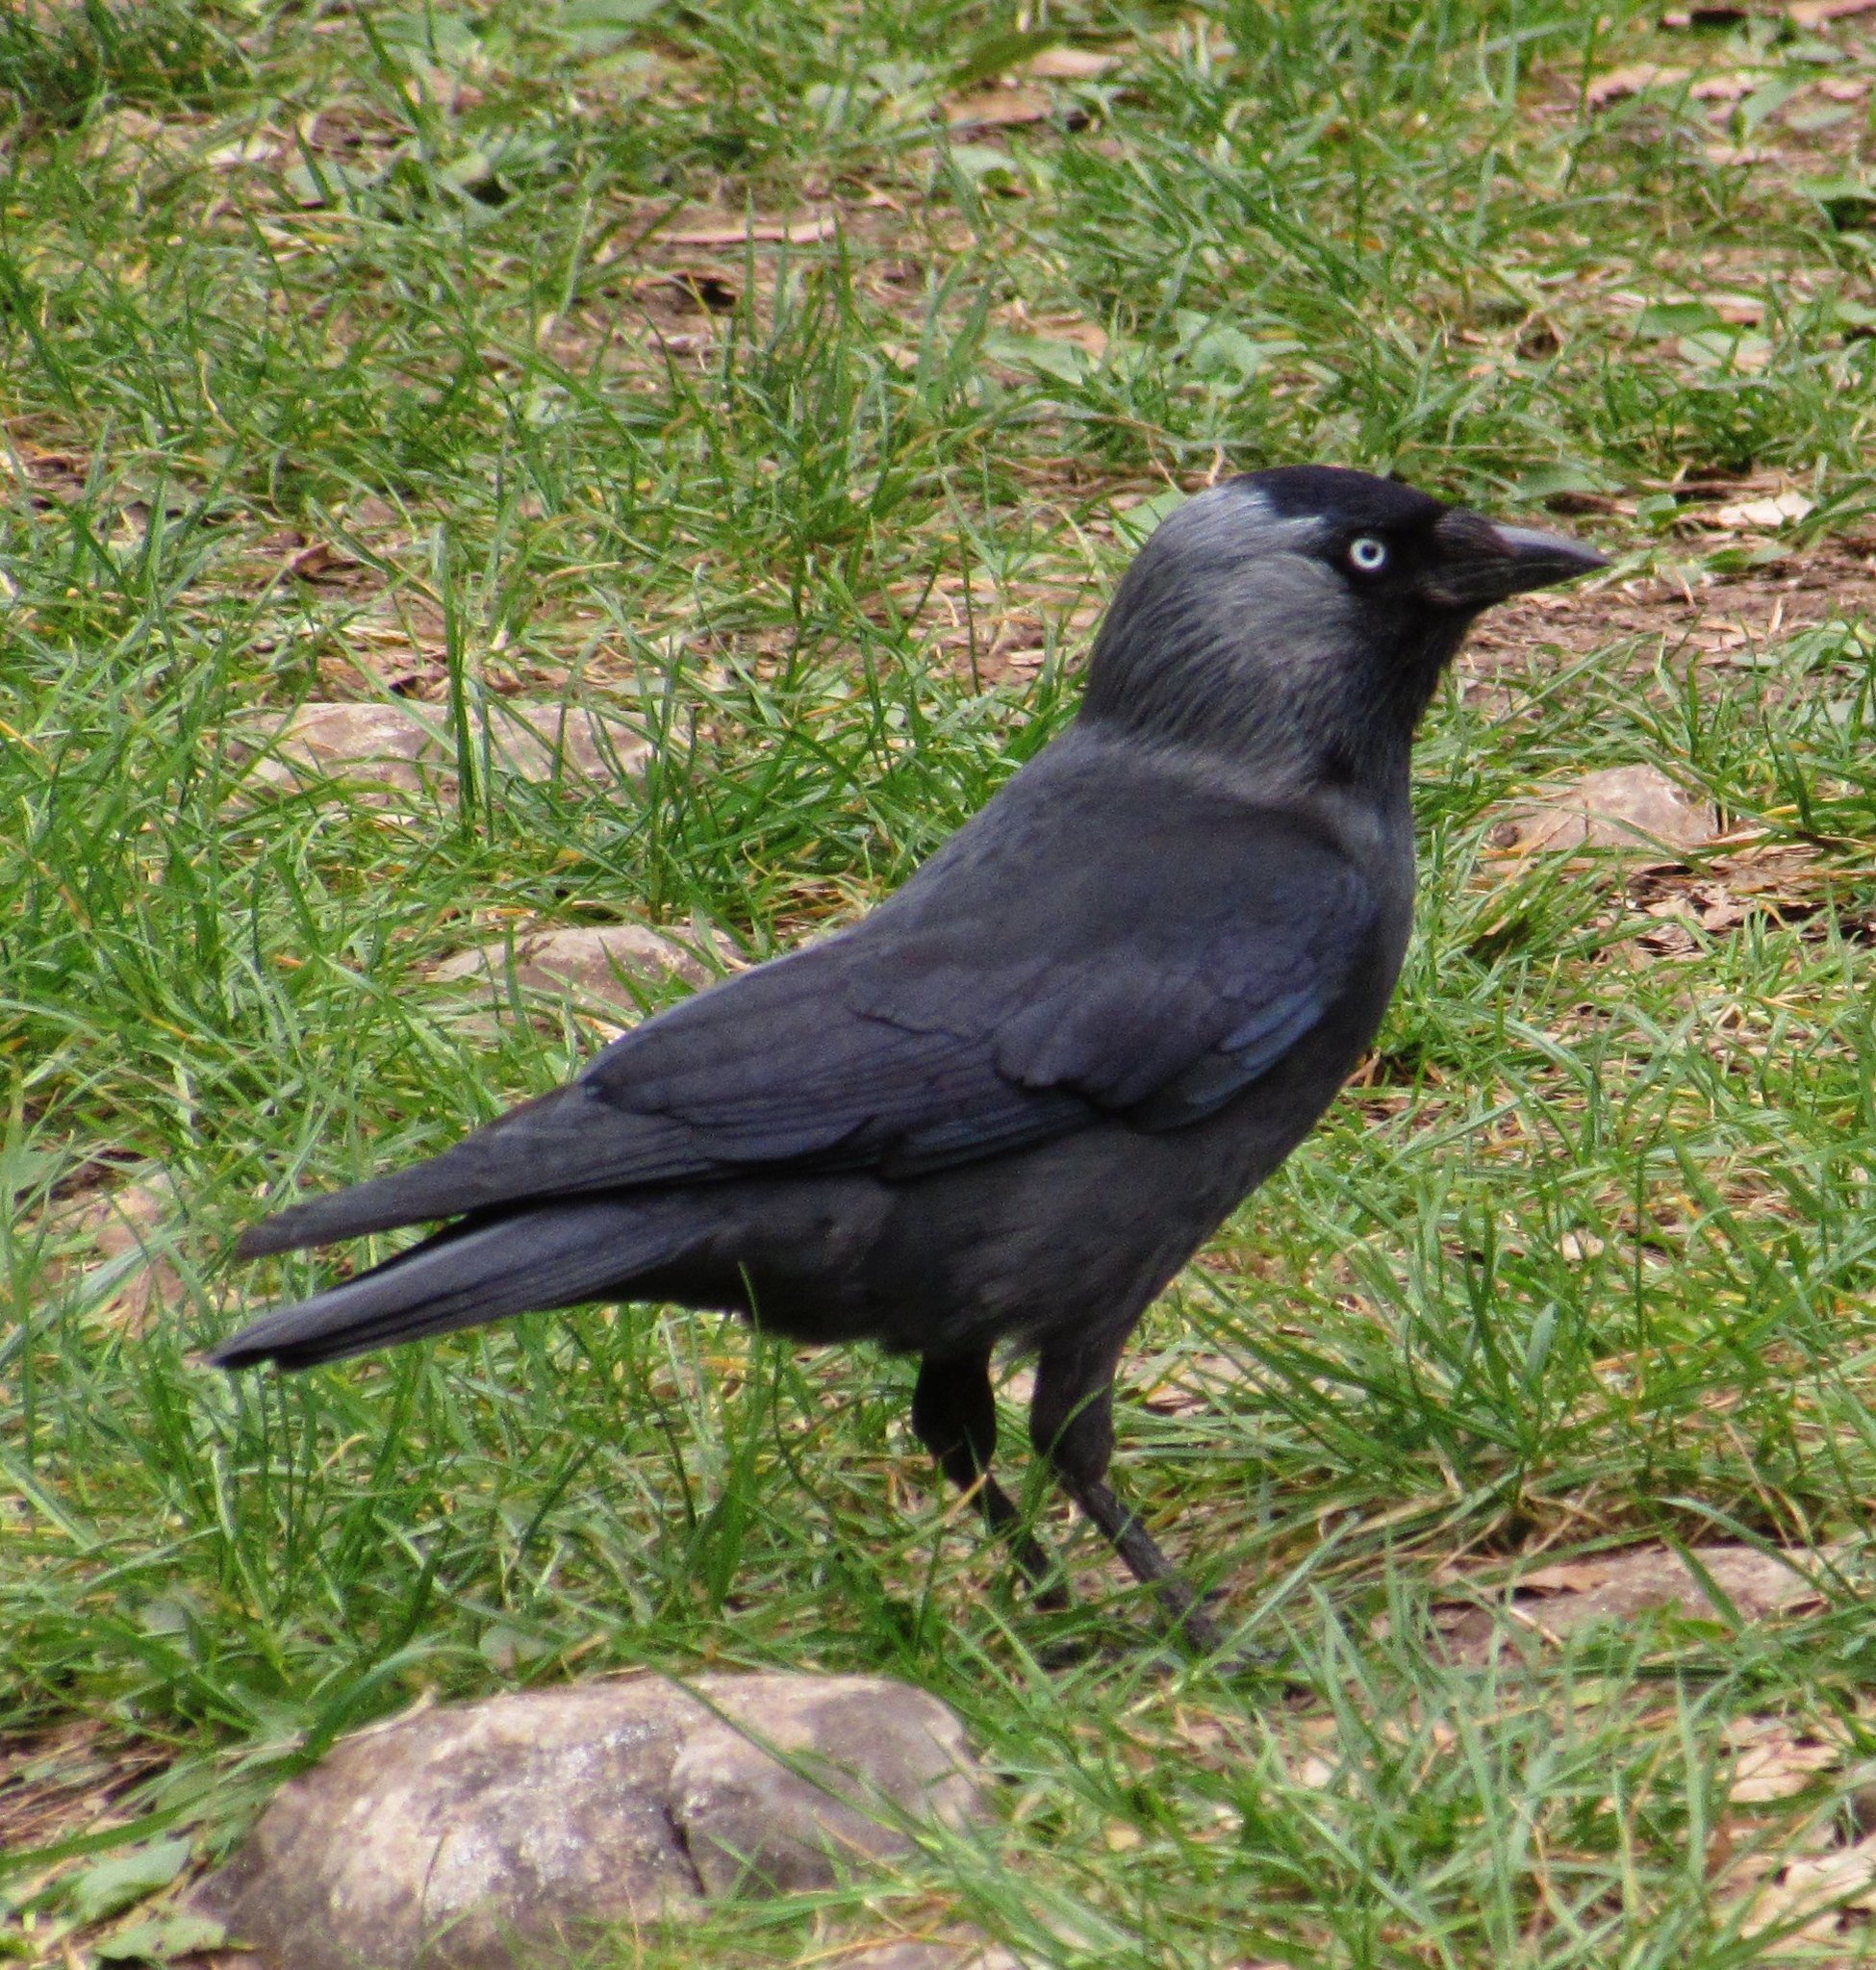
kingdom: Animalia
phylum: Chordata
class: Aves
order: Passeriformes
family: Corvidae
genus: Coloeus
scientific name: Coloeus monedula
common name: Western jackdaw
